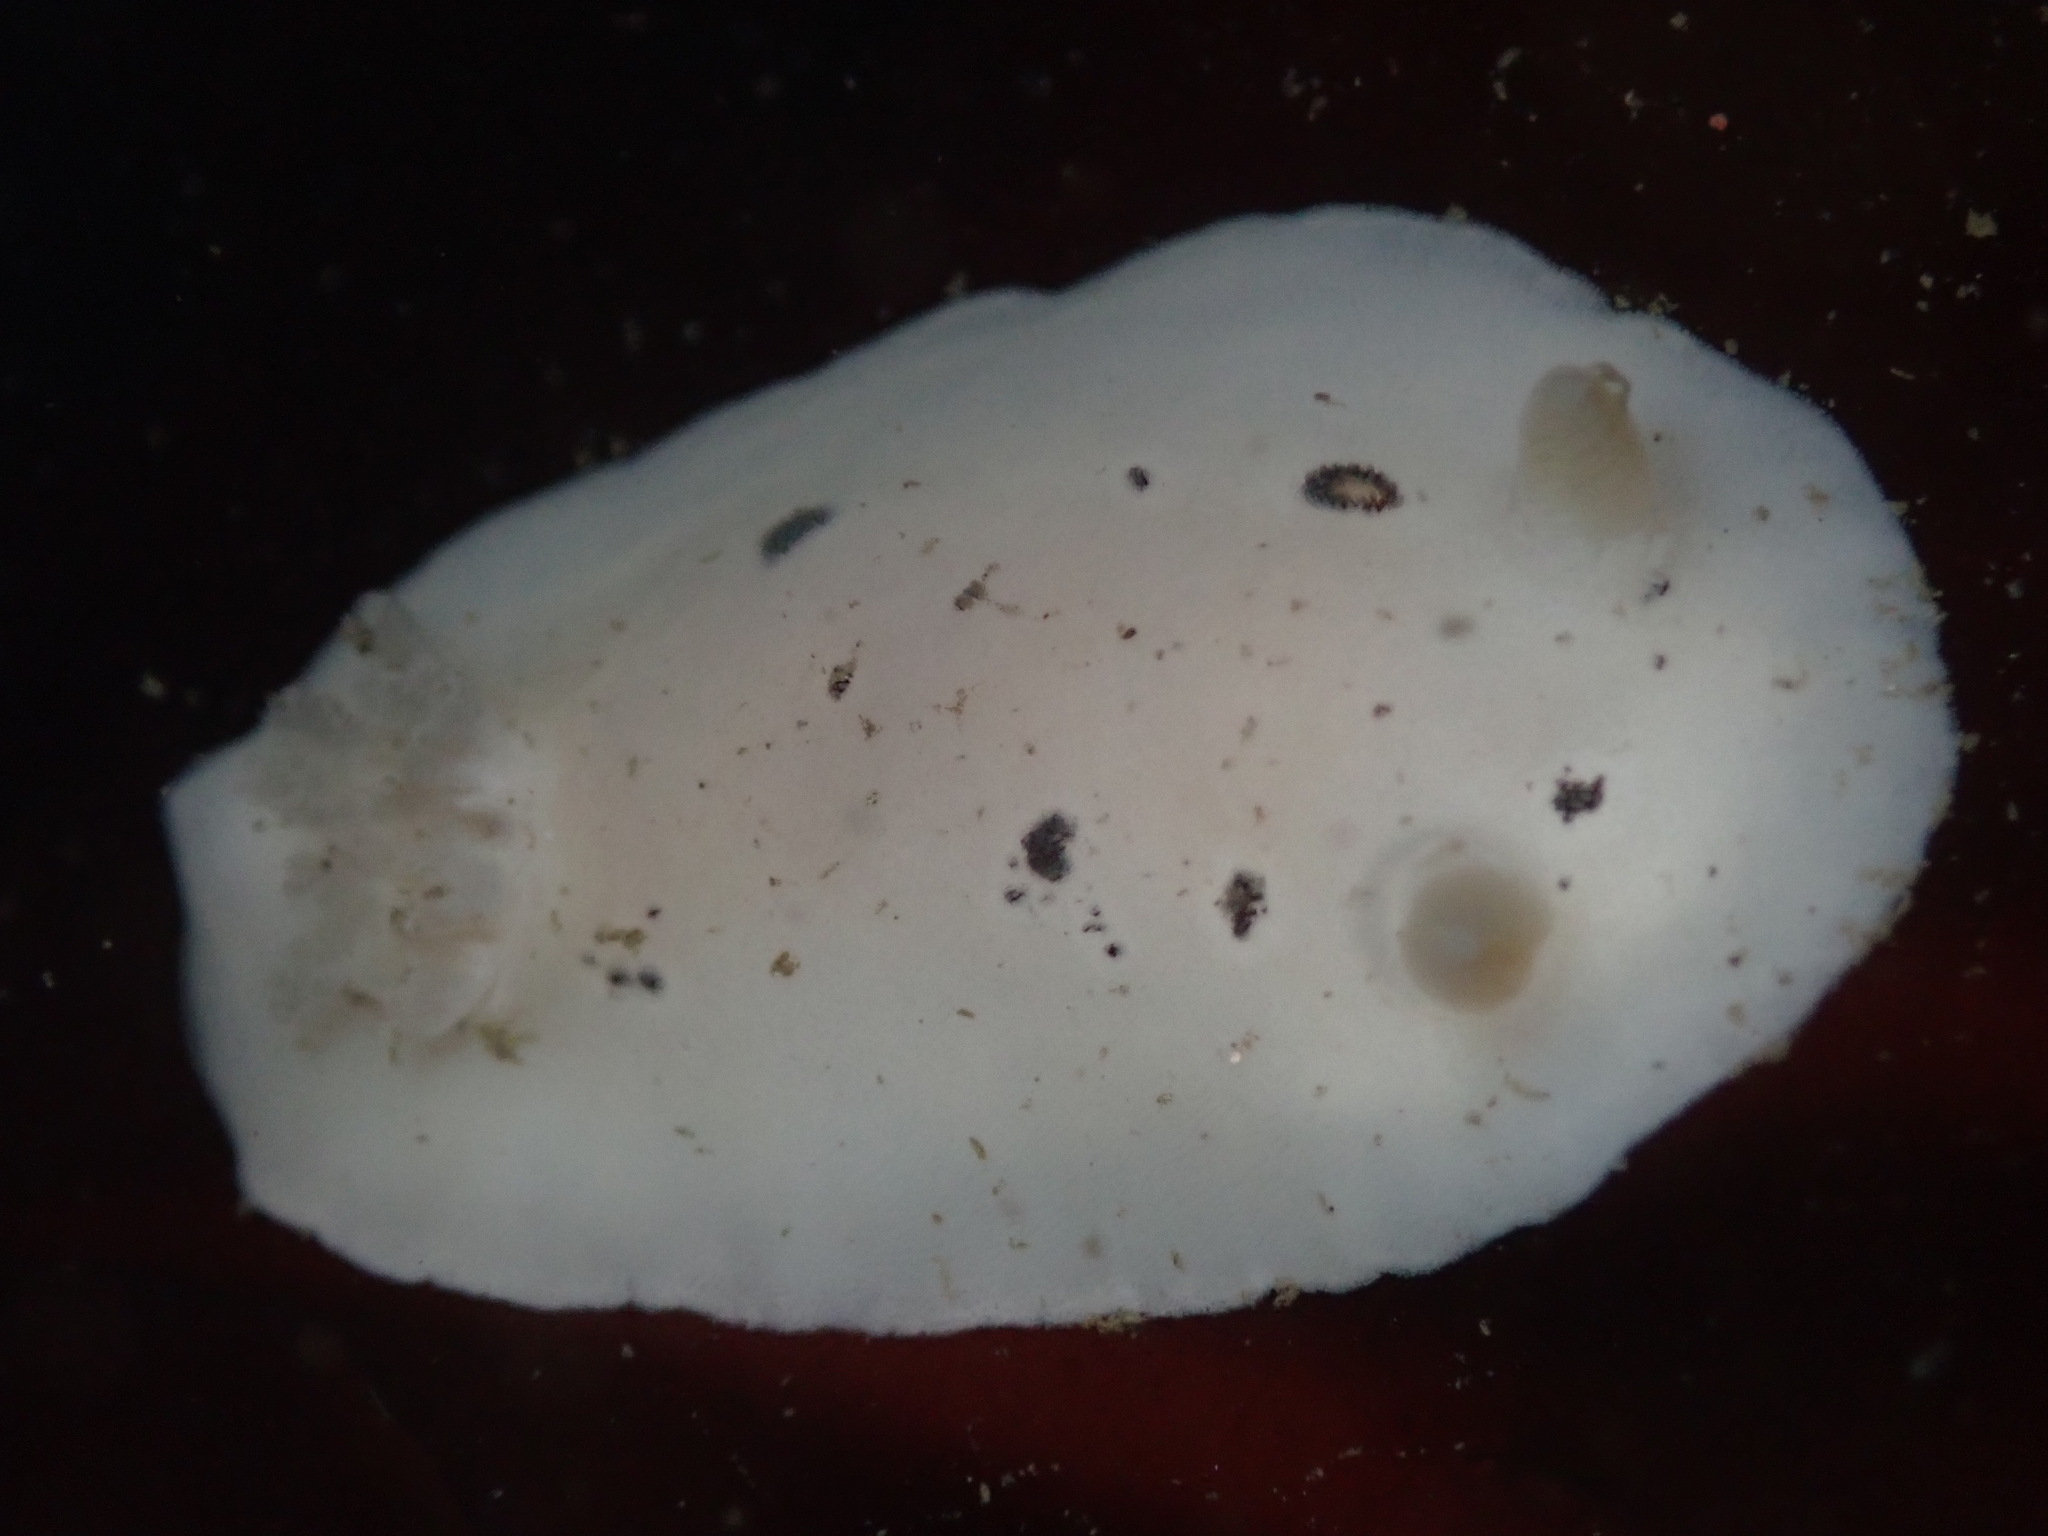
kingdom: Animalia
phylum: Mollusca
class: Gastropoda
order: Nudibranchia
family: Discodorididae
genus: Diaulula
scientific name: Diaulula sandiegensis
